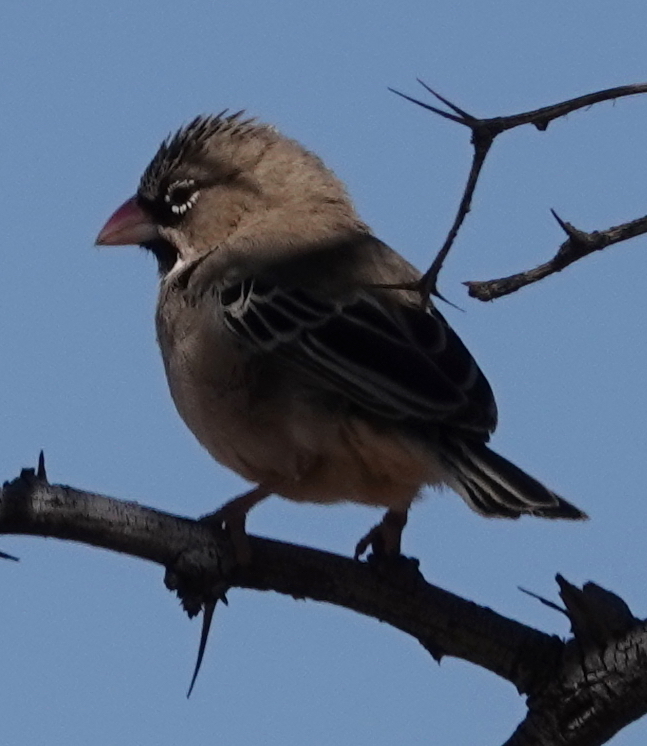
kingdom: Animalia
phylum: Chordata
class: Aves
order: Passeriformes
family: Ploceidae
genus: Sporopipes
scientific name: Sporopipes squamifrons
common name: Scaly-feathered weaver
